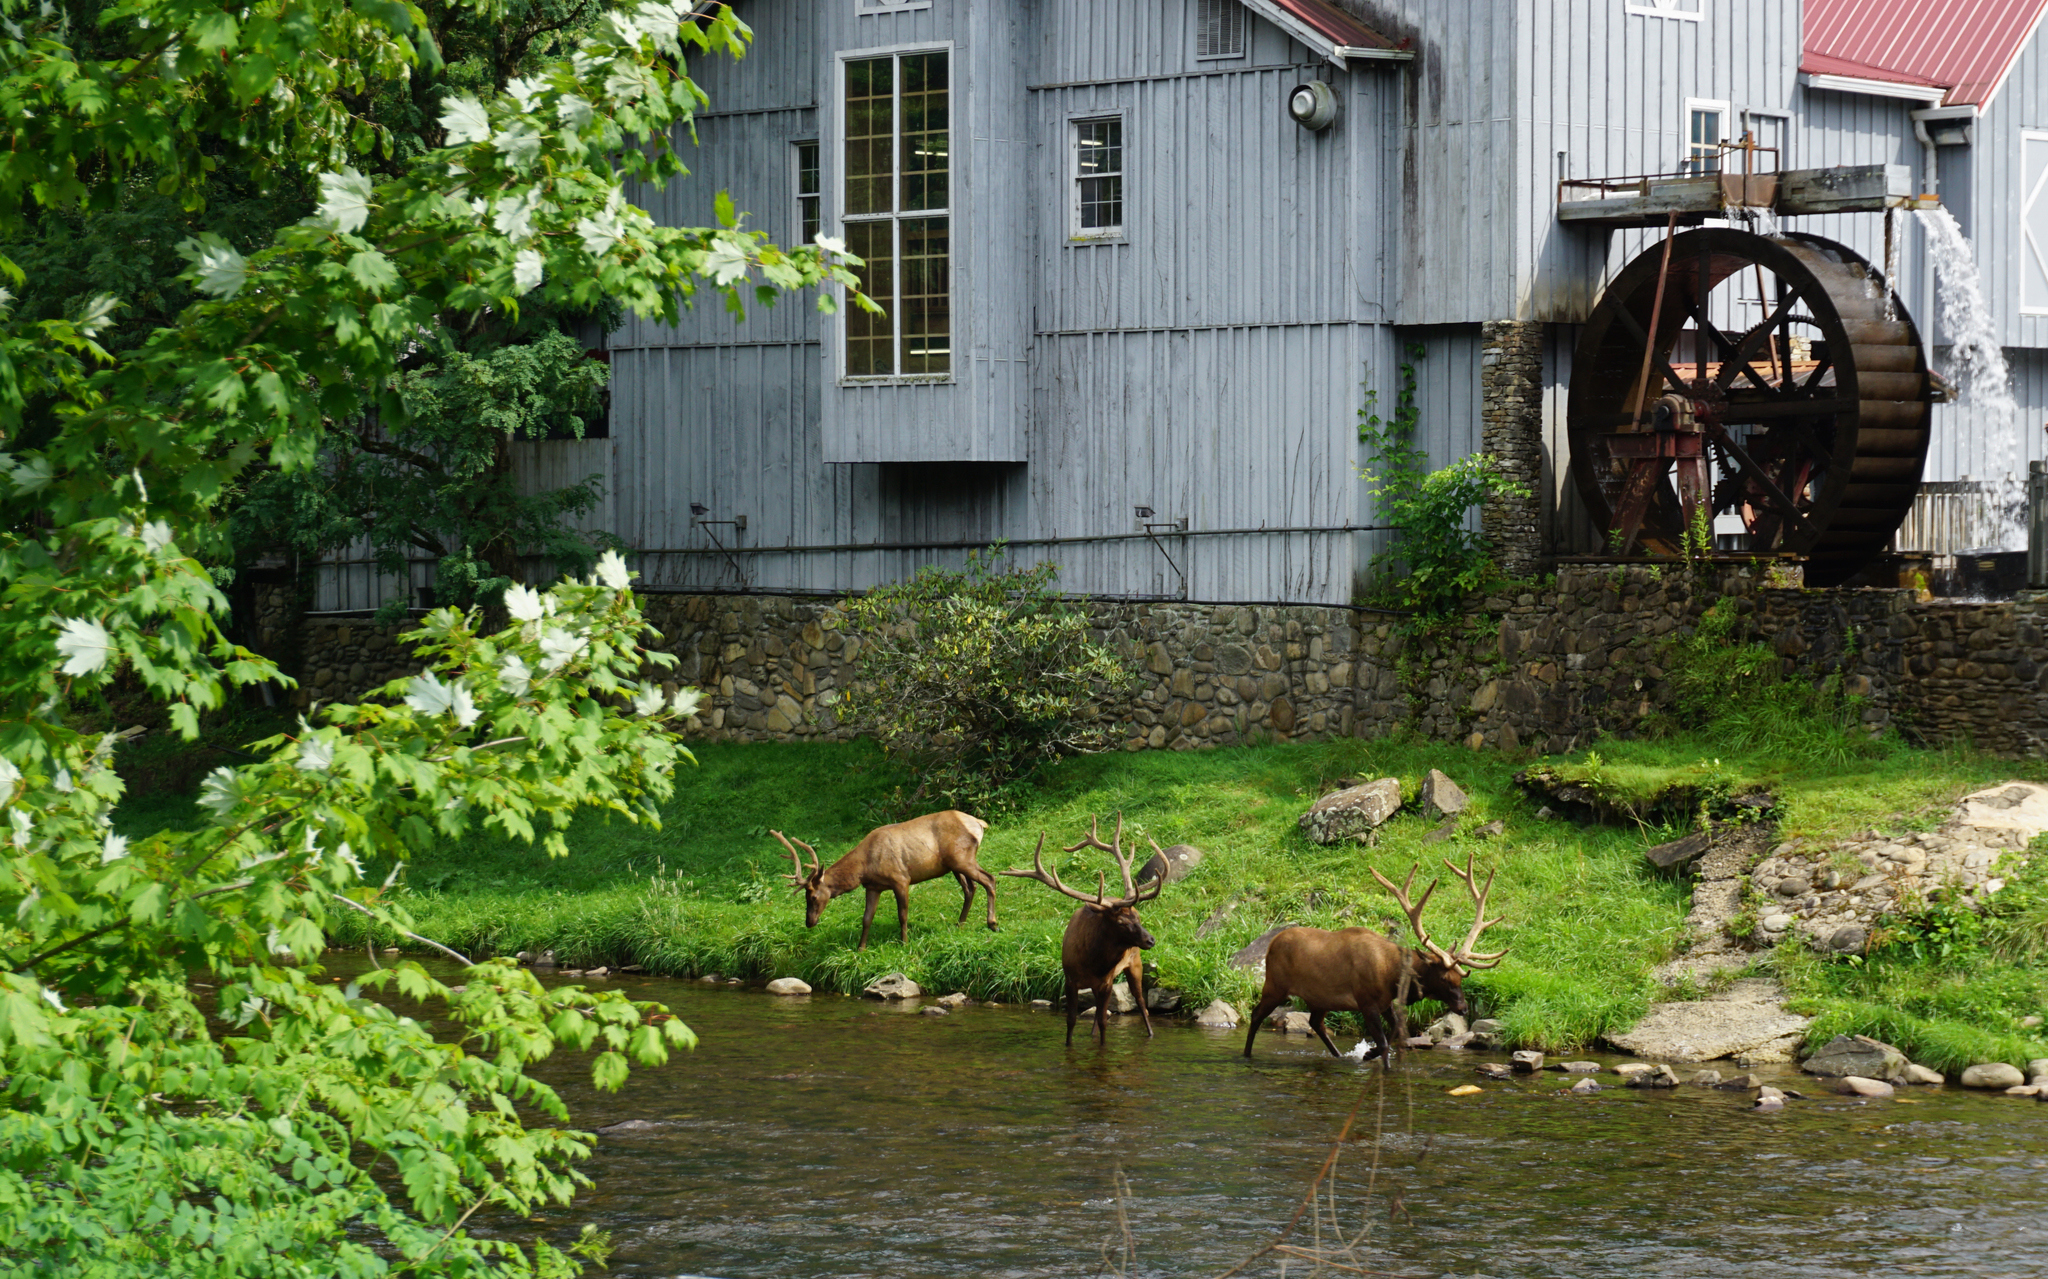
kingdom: Animalia
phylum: Chordata
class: Mammalia
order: Artiodactyla
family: Cervidae
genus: Cervus
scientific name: Cervus elaphus
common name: Red deer
